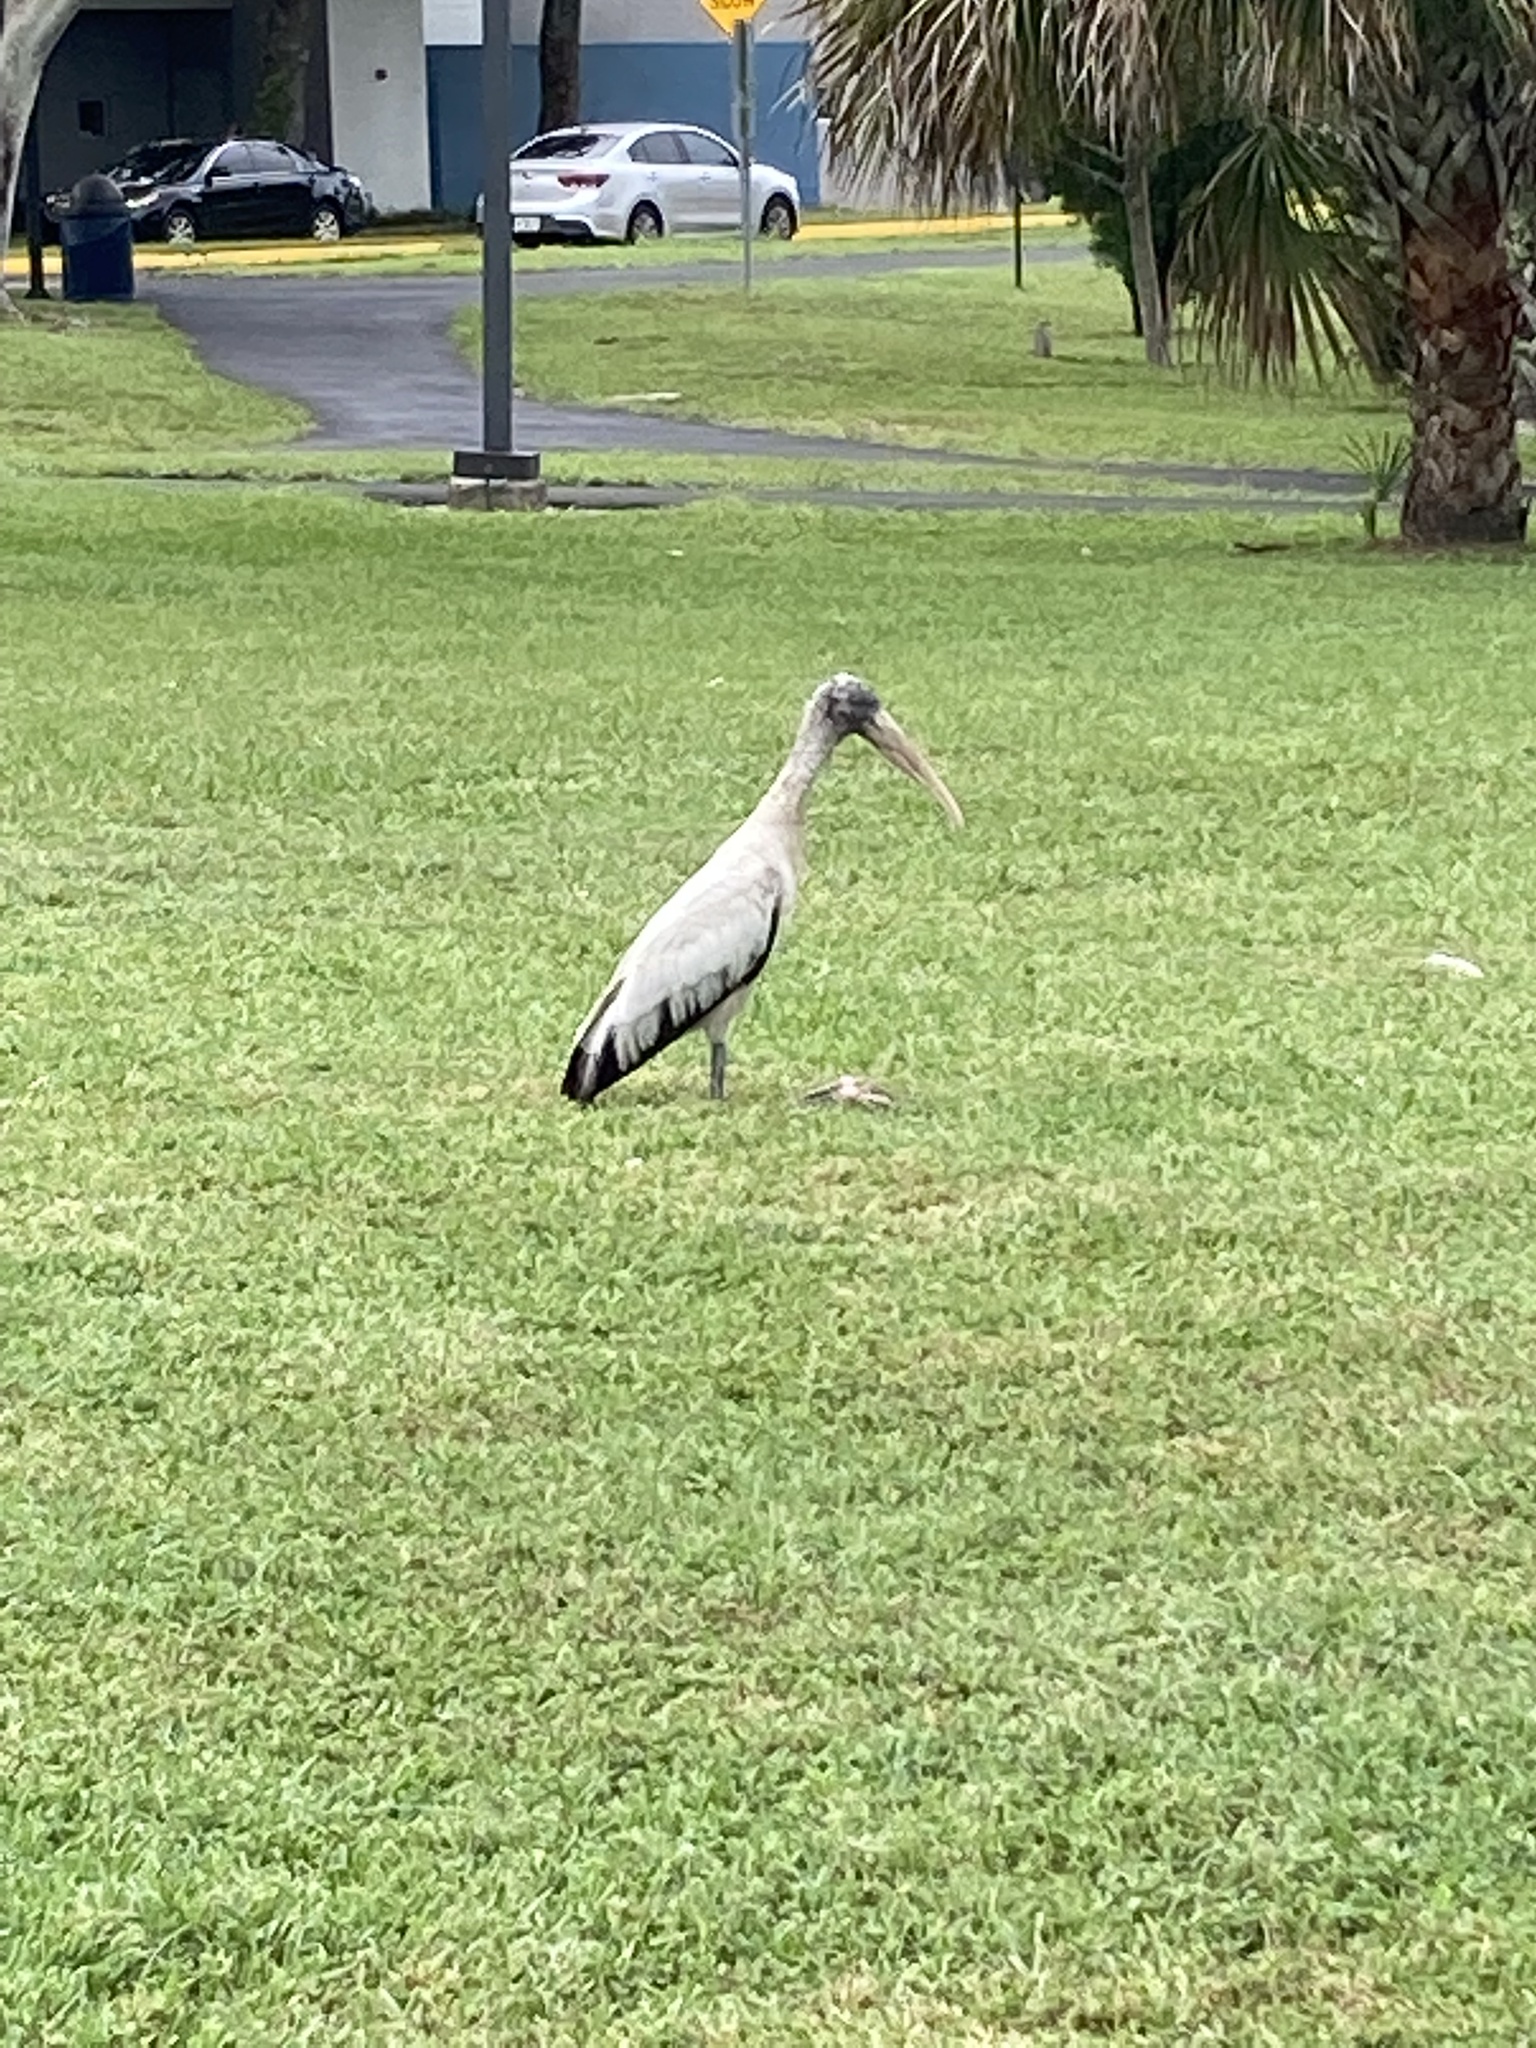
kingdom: Animalia
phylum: Chordata
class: Aves
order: Ciconiiformes
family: Ciconiidae
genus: Mycteria
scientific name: Mycteria americana
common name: Wood stork
